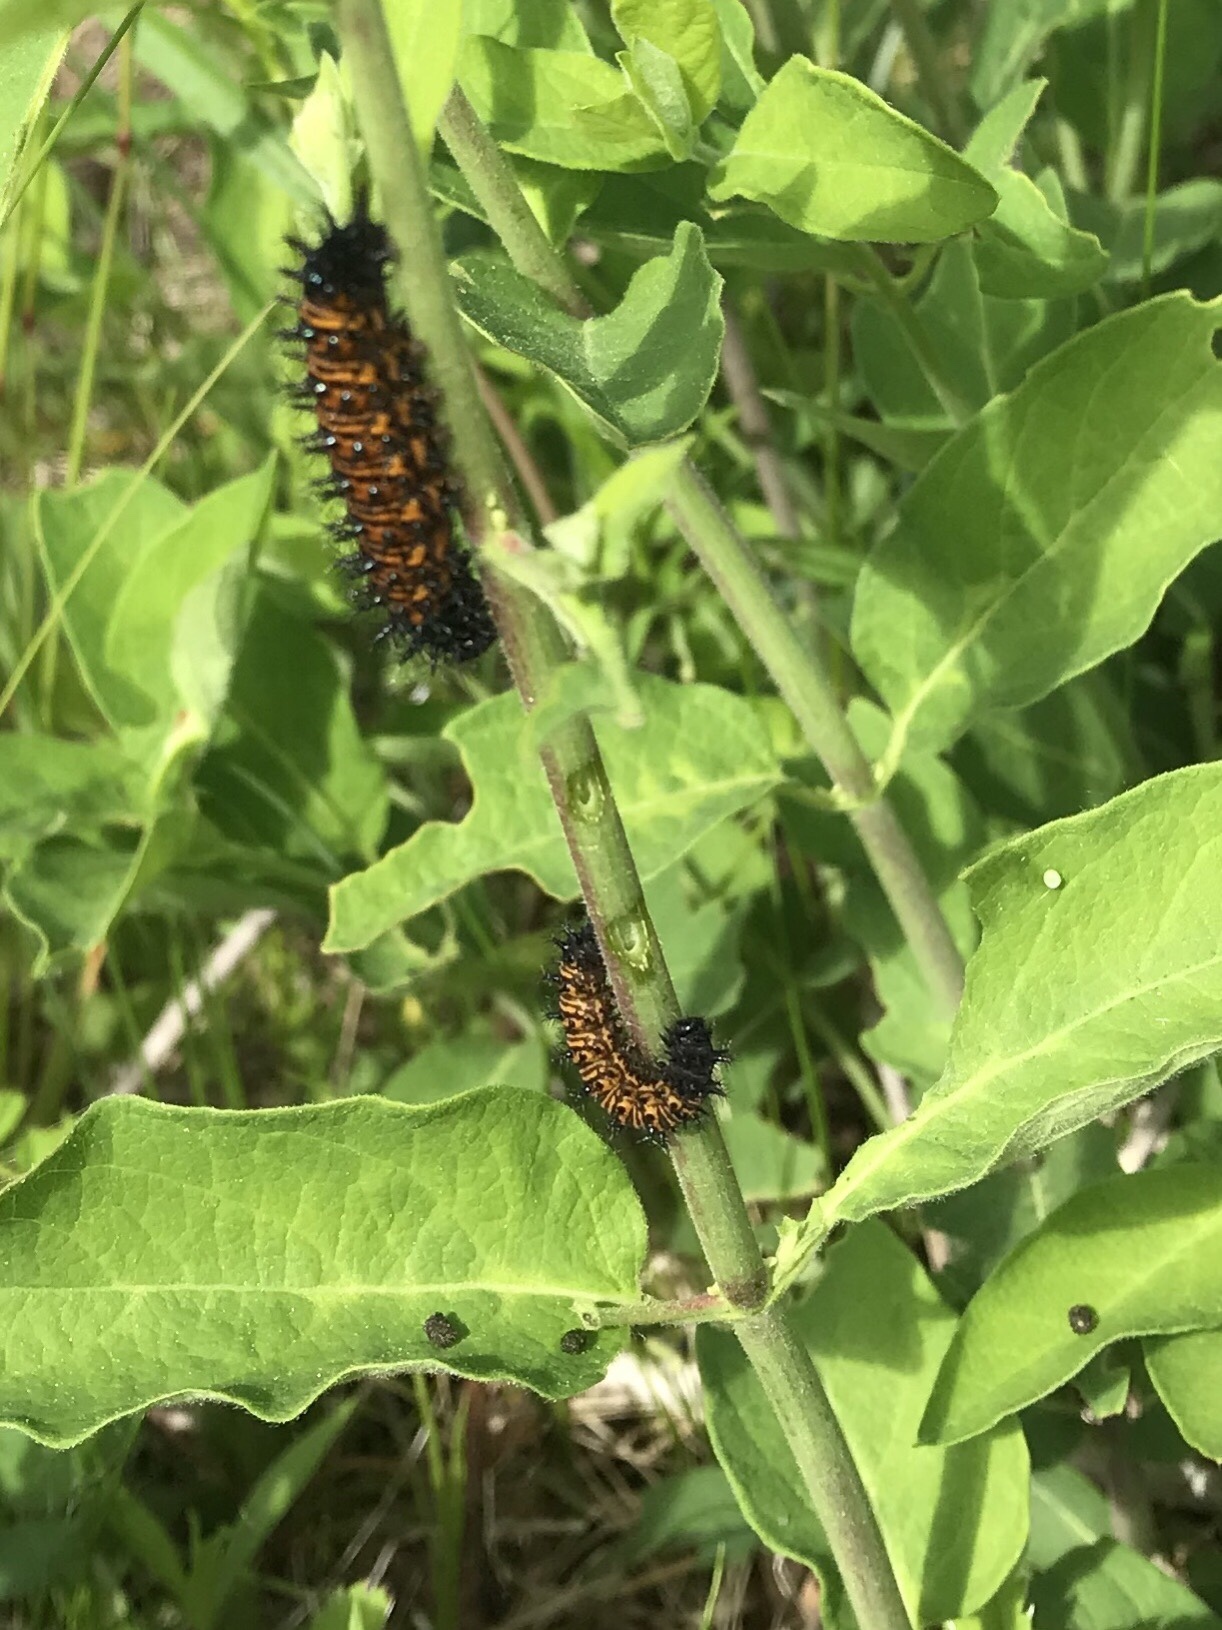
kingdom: Animalia
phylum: Arthropoda
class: Insecta
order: Lepidoptera
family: Nymphalidae
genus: Euphydryas
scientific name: Euphydryas phaeton
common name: Baltimore checkerspot
